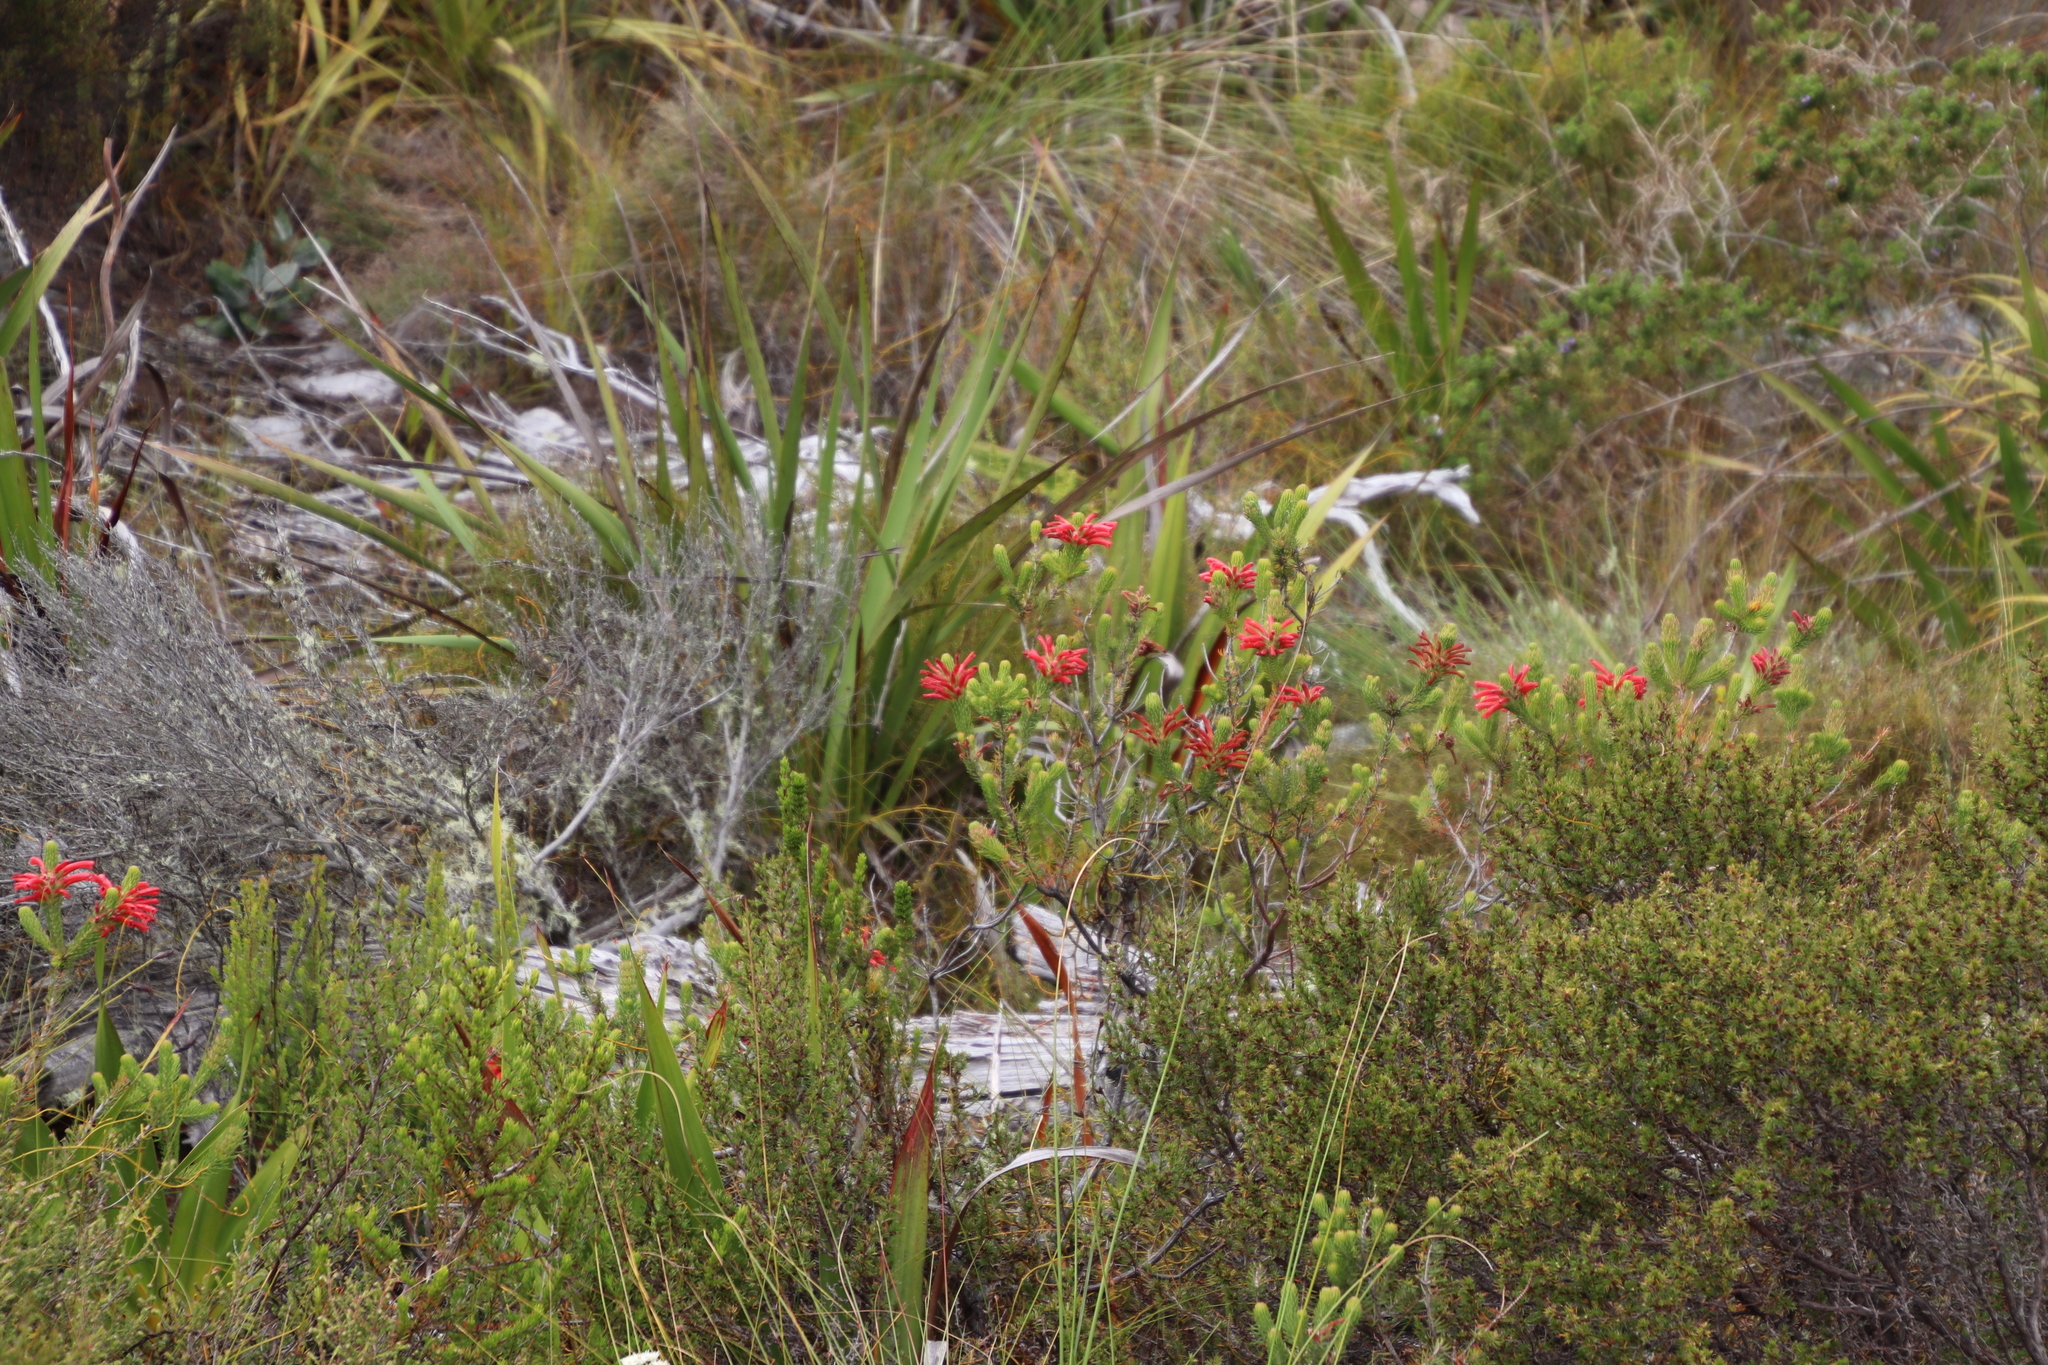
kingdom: Plantae
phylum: Tracheophyta
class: Magnoliopsida
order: Ericales
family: Ericaceae
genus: Erica
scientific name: Erica abietina
